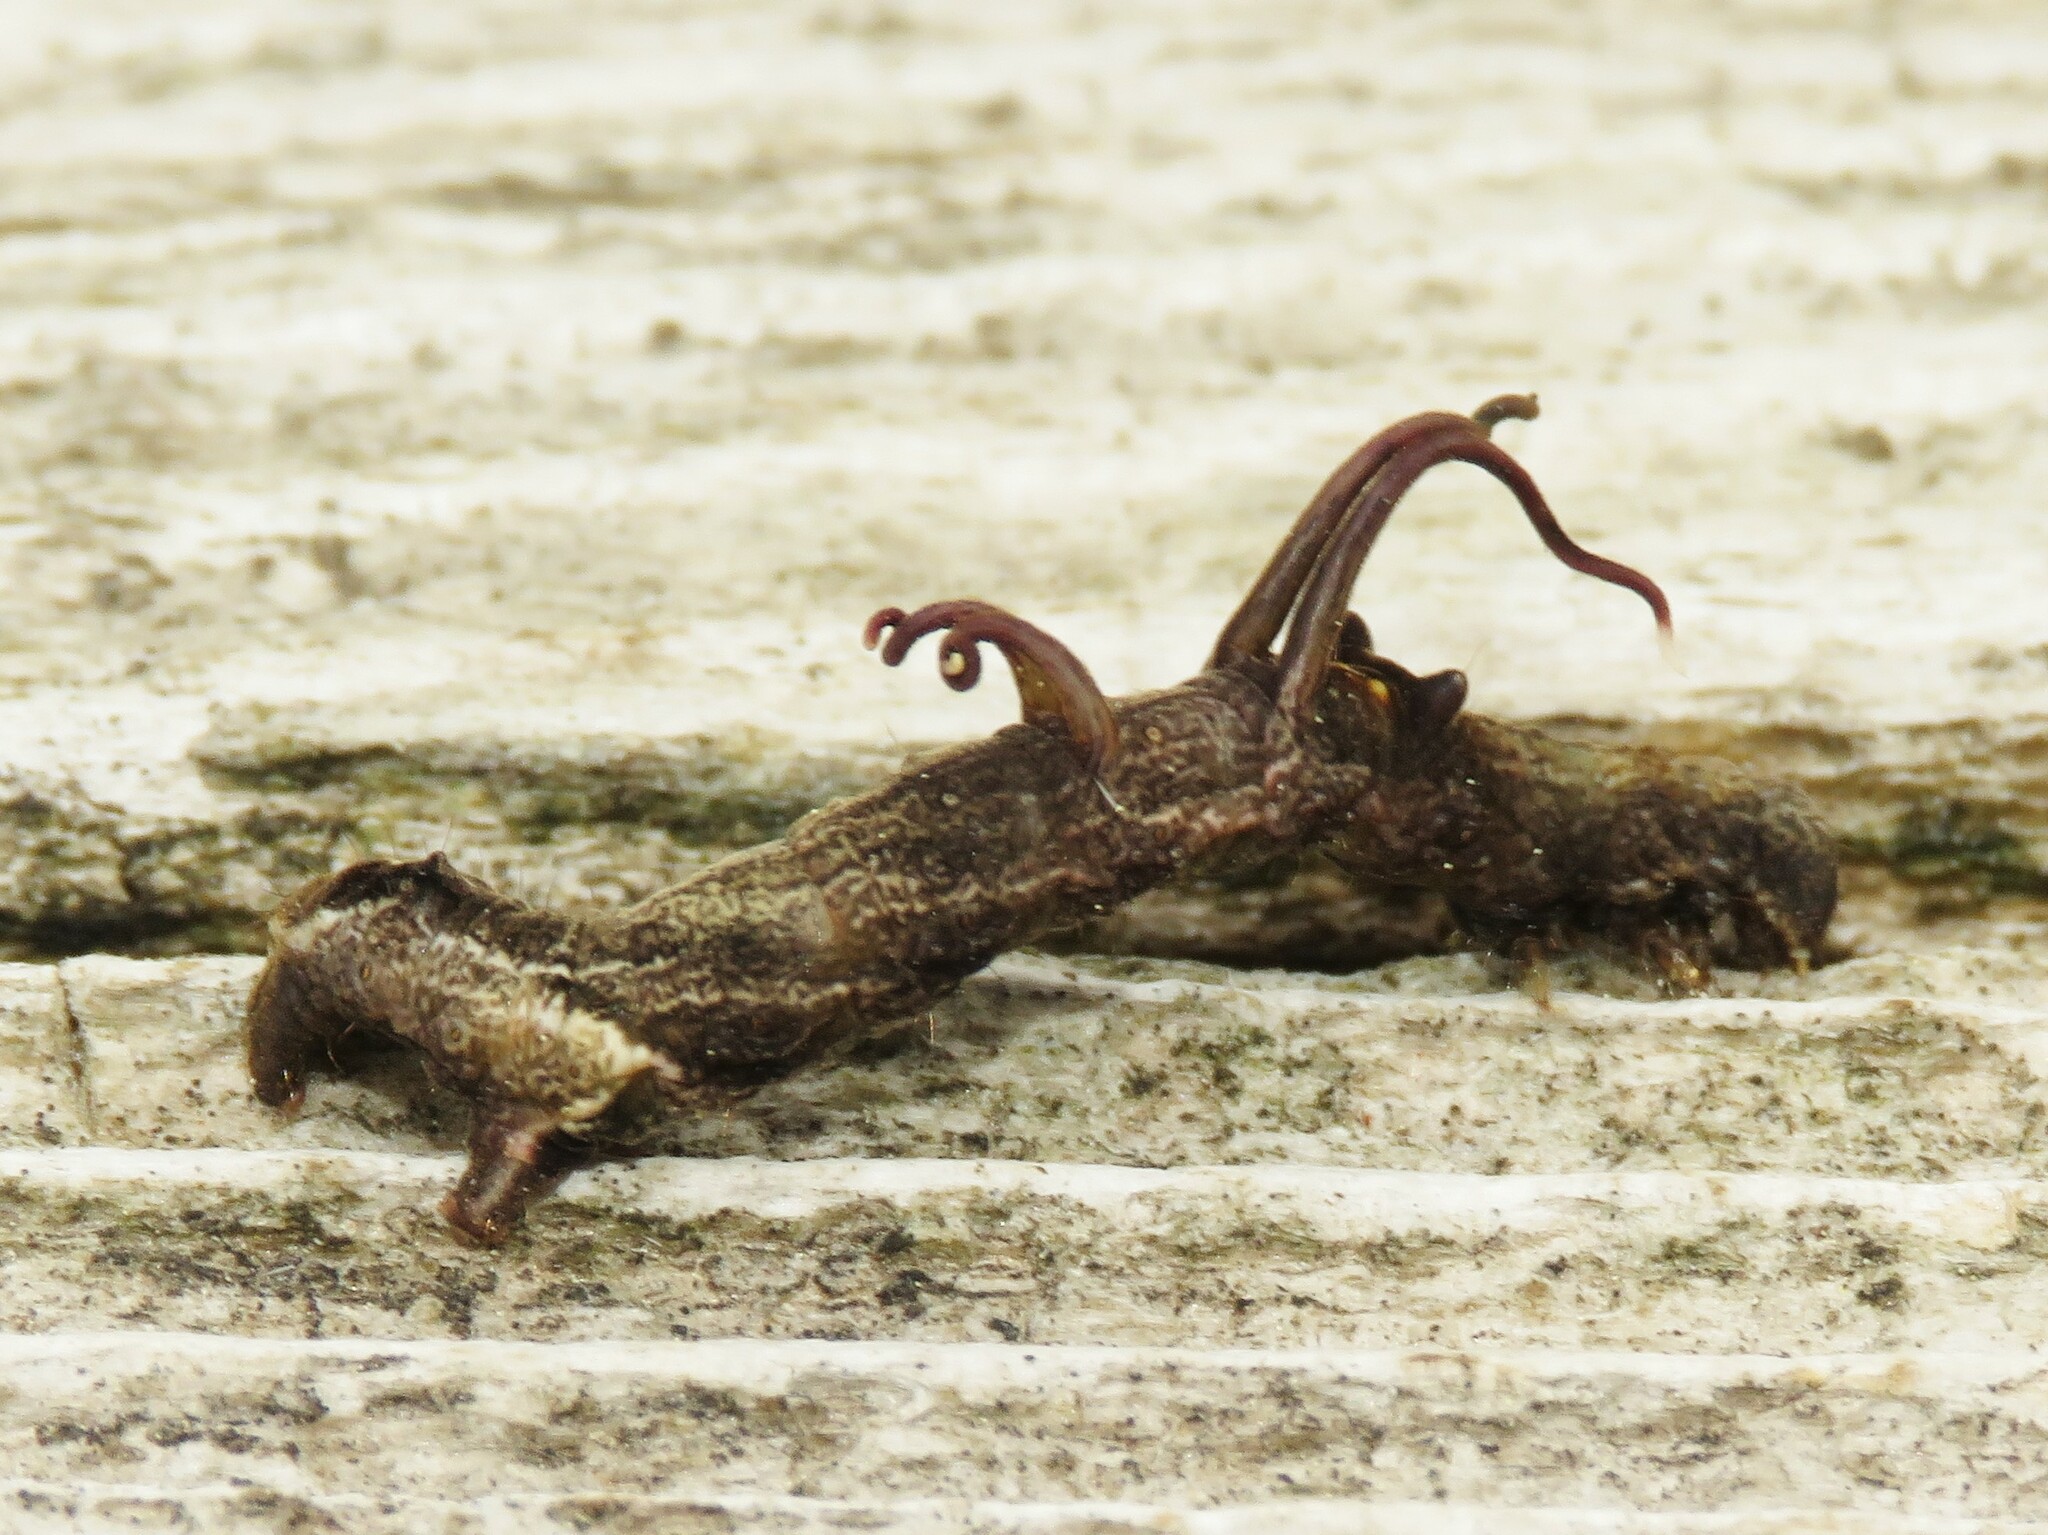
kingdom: Animalia
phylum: Arthropoda
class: Insecta
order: Lepidoptera
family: Geometridae
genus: Nematocampa
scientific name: Nematocampa resistaria
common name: Horned spanworm moth
